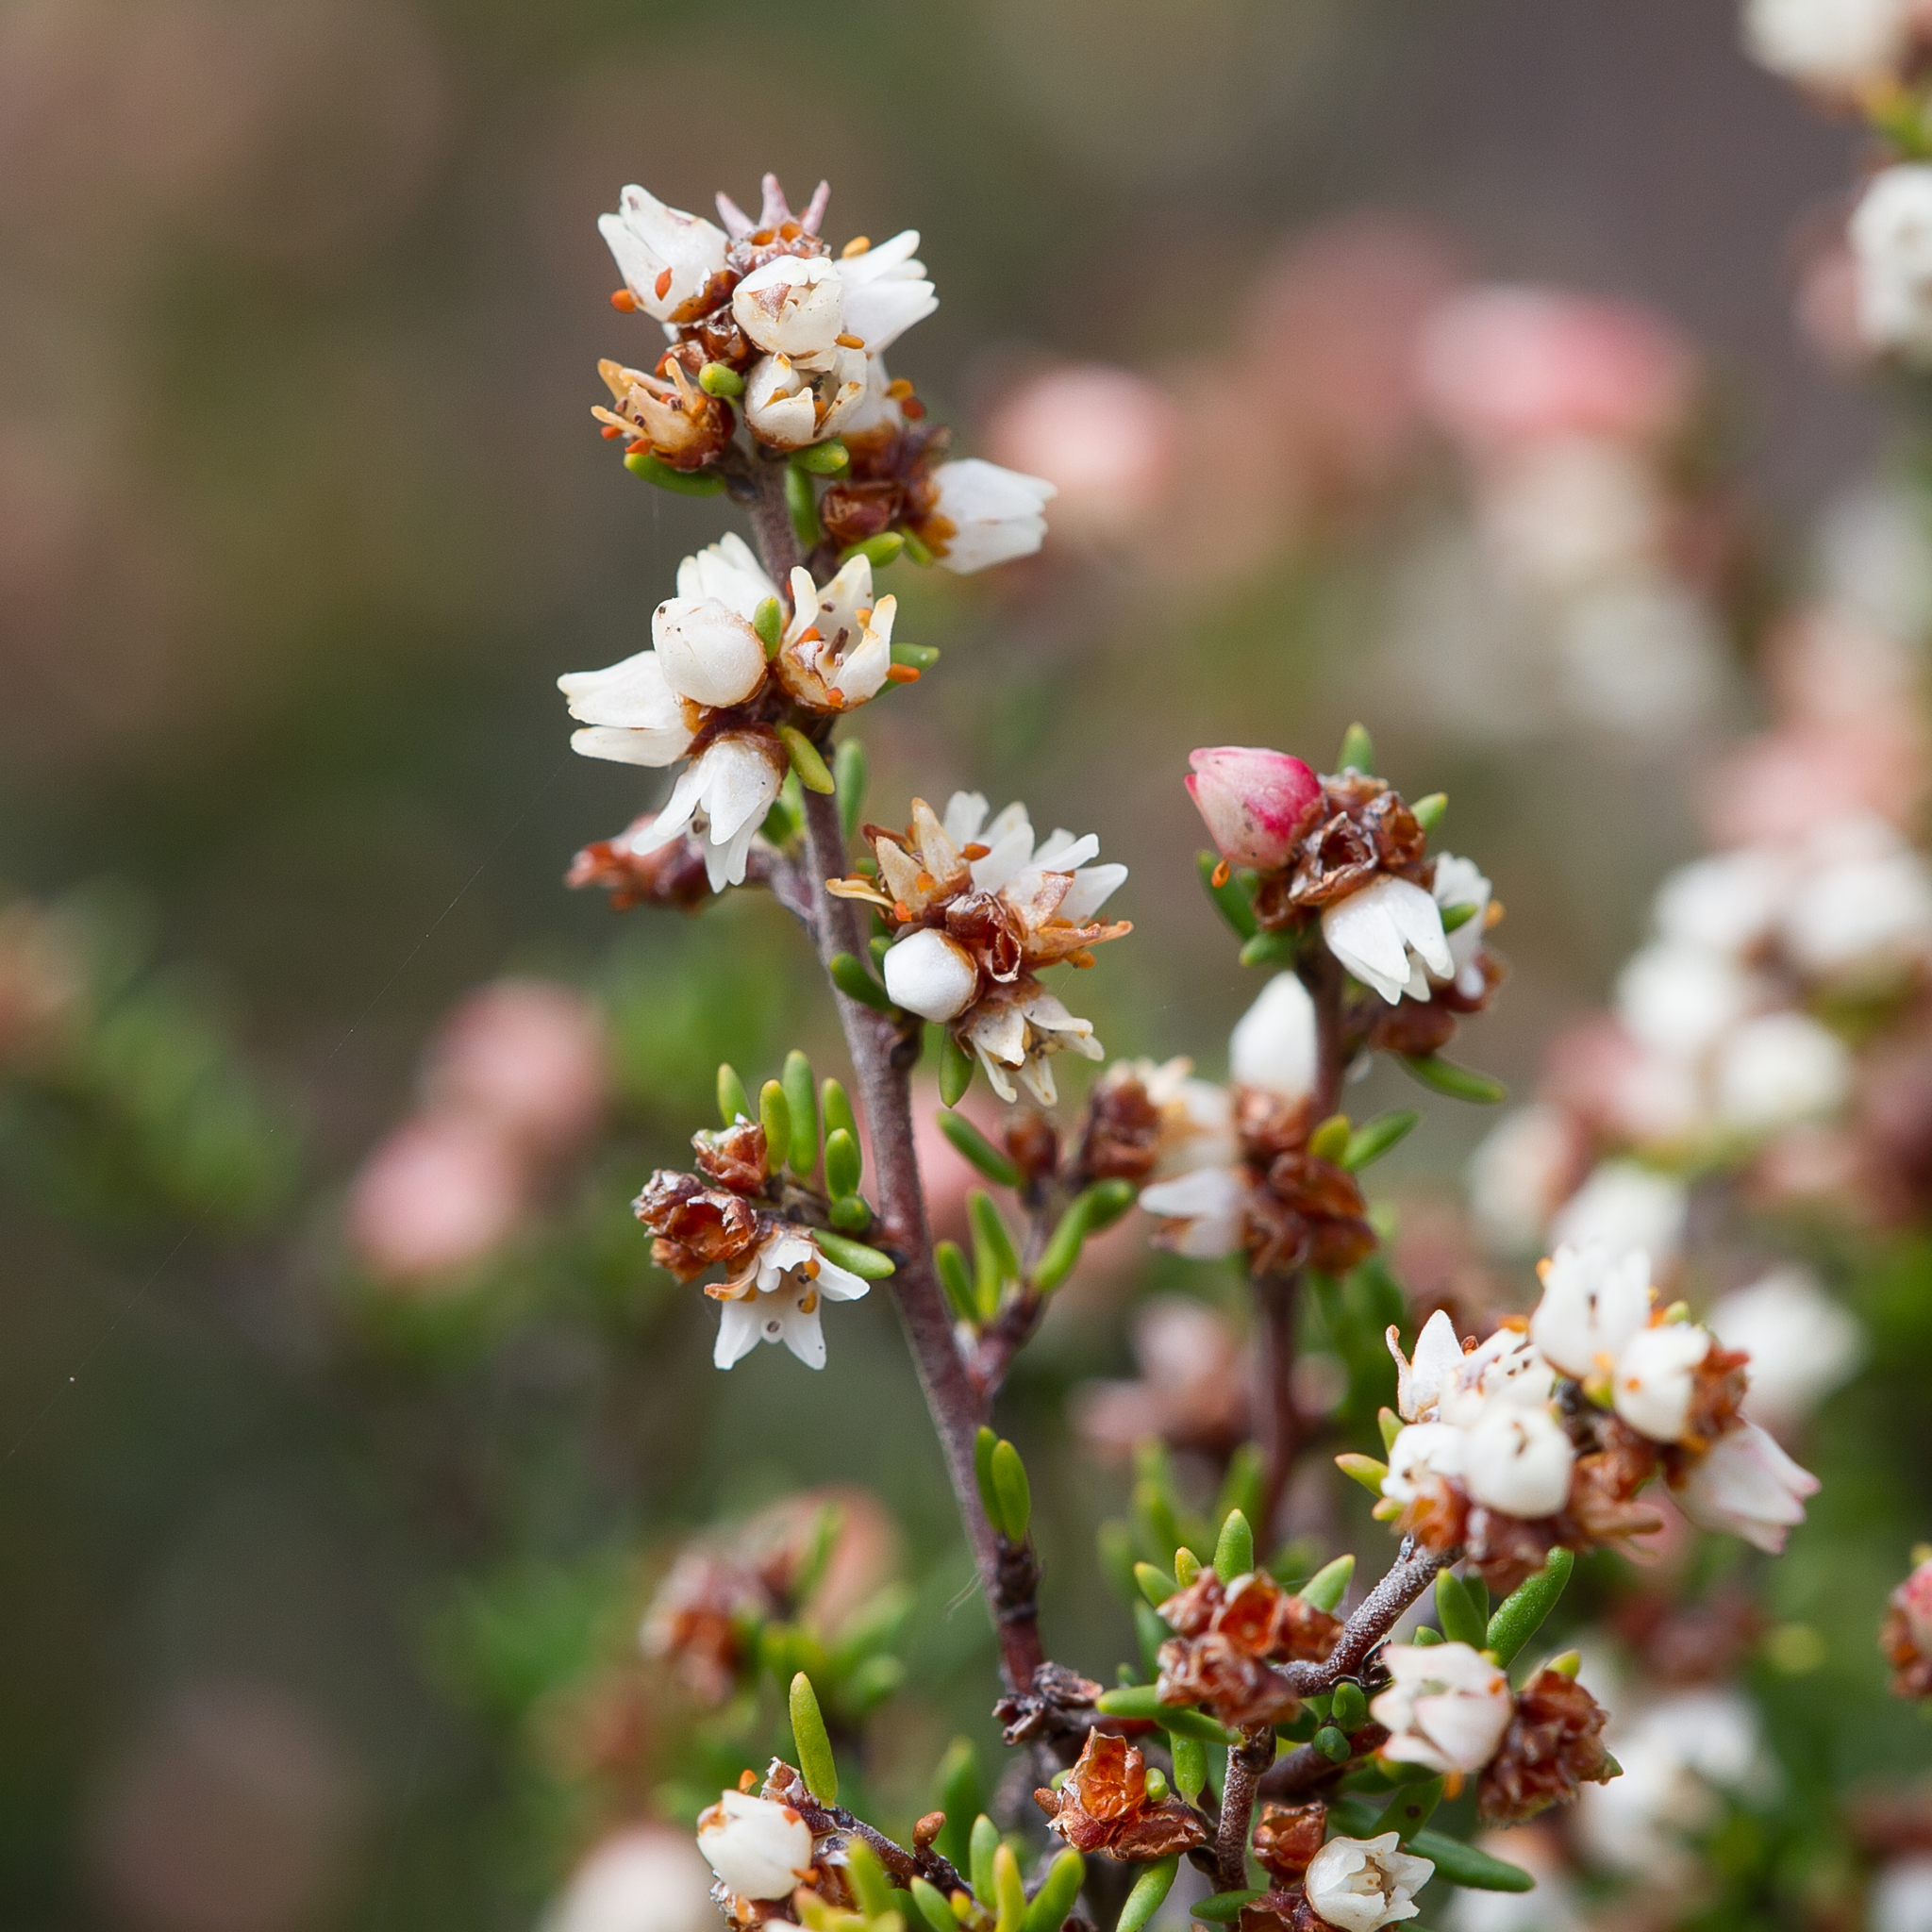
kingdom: Plantae
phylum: Tracheophyta
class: Magnoliopsida
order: Rosales
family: Rhamnaceae
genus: Cryptandra
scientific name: Cryptandra tomentosa
